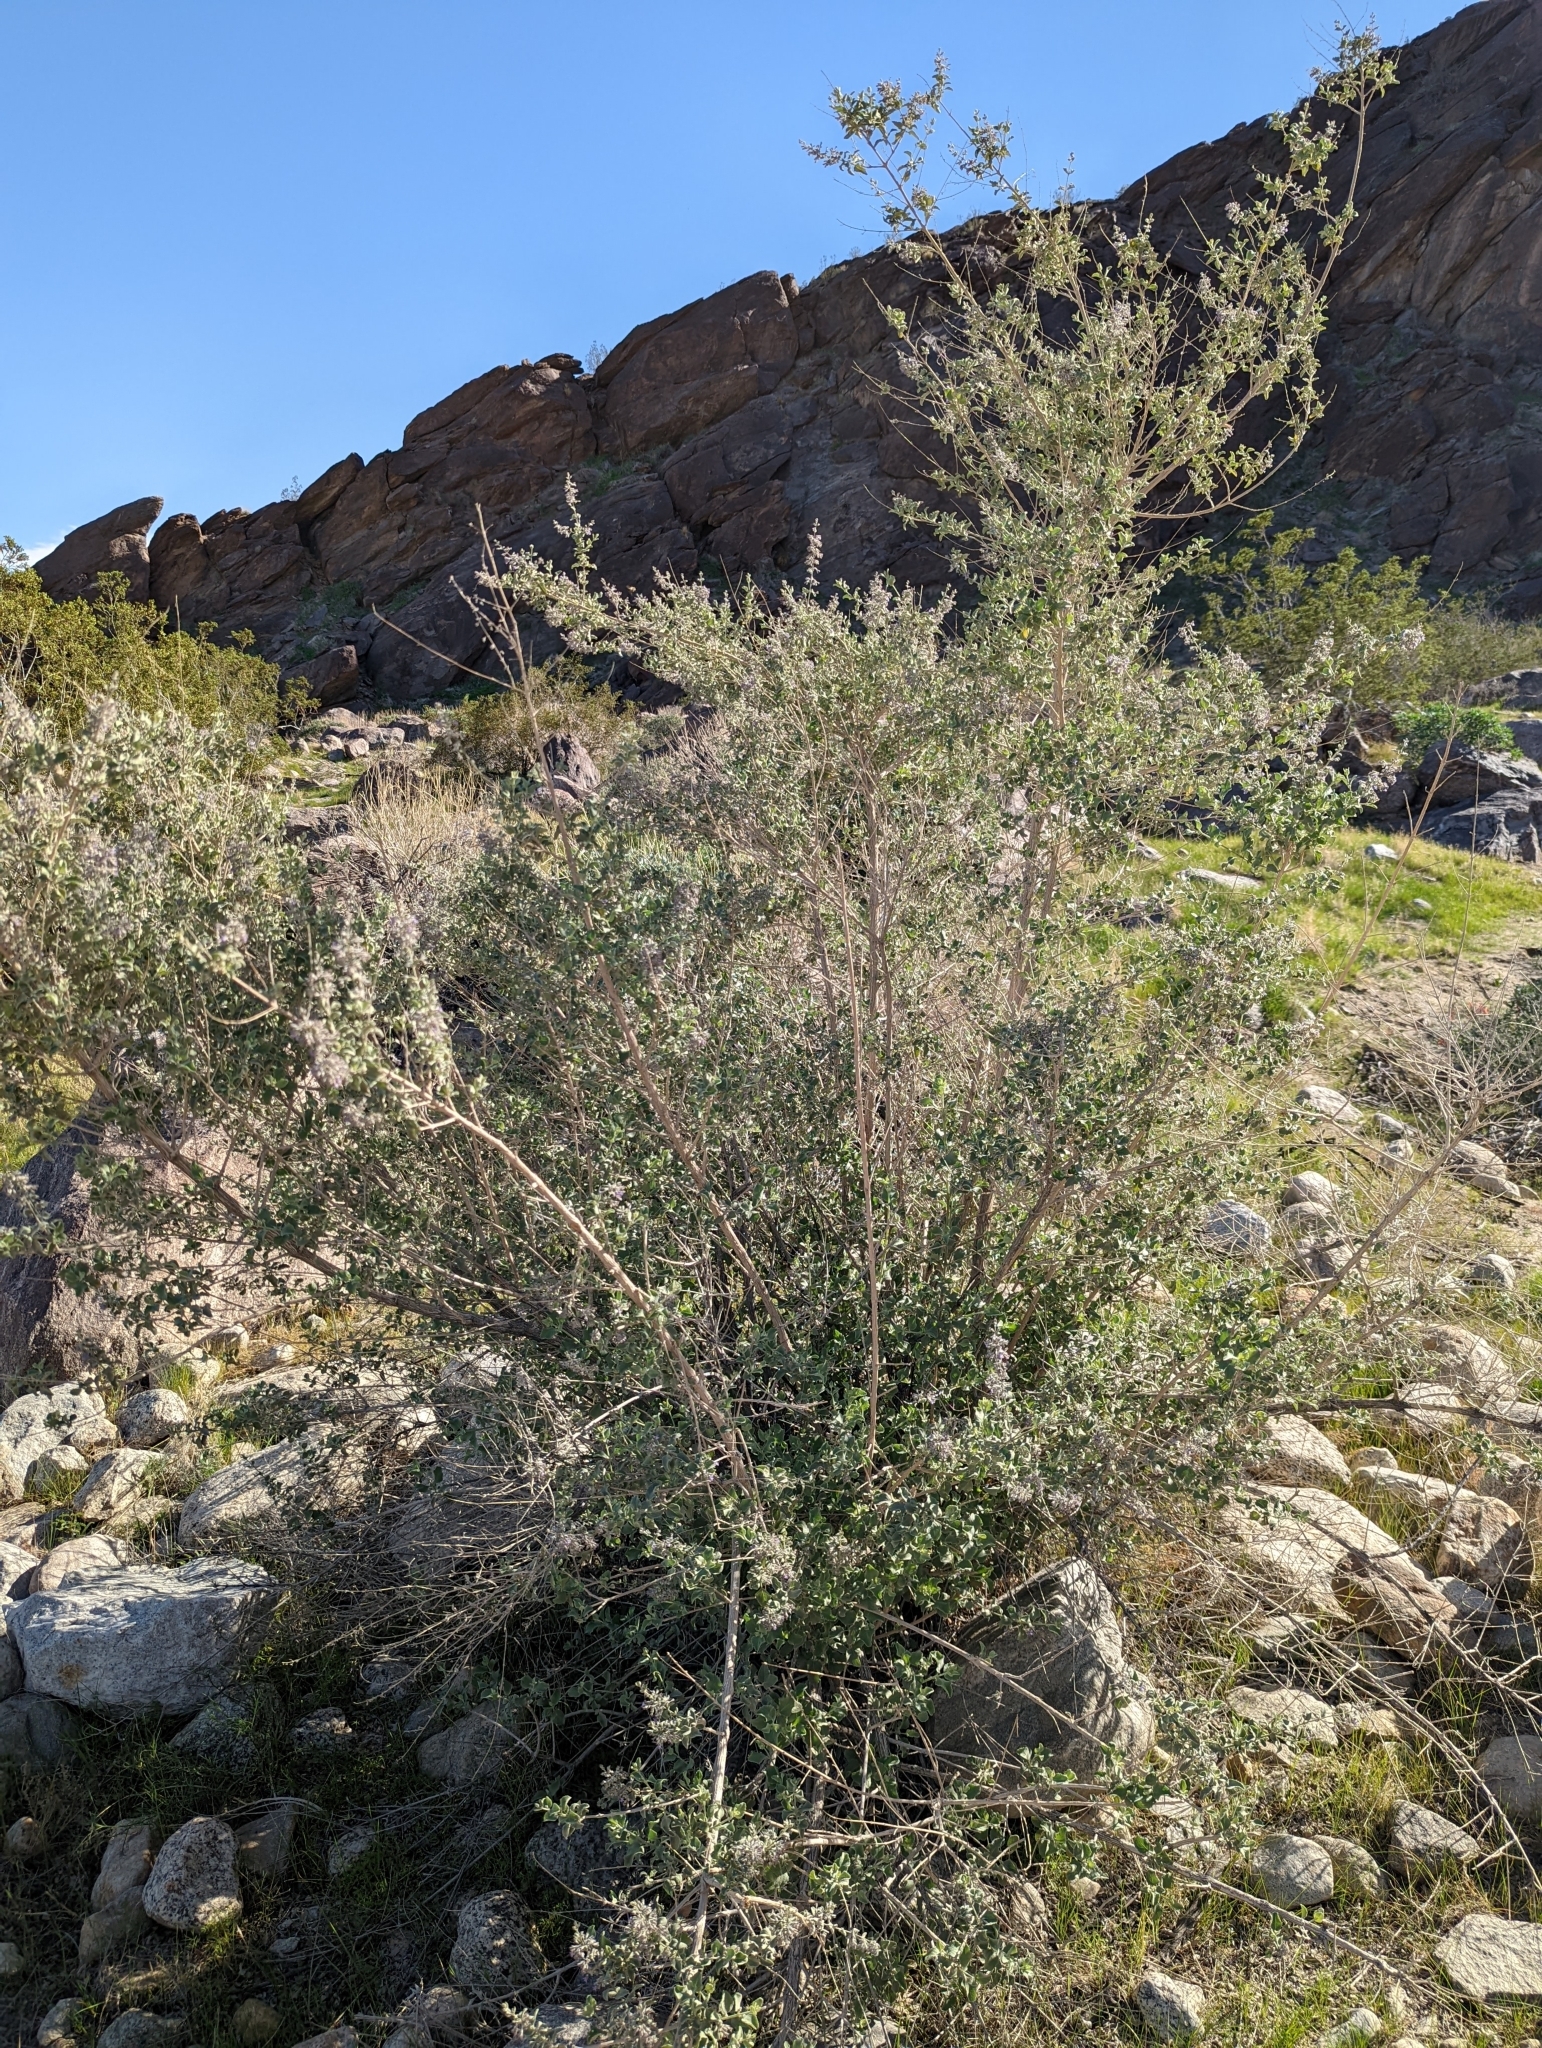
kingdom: Plantae
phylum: Tracheophyta
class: Magnoliopsida
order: Lamiales
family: Lamiaceae
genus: Condea
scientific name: Condea emoryi
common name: Chia
